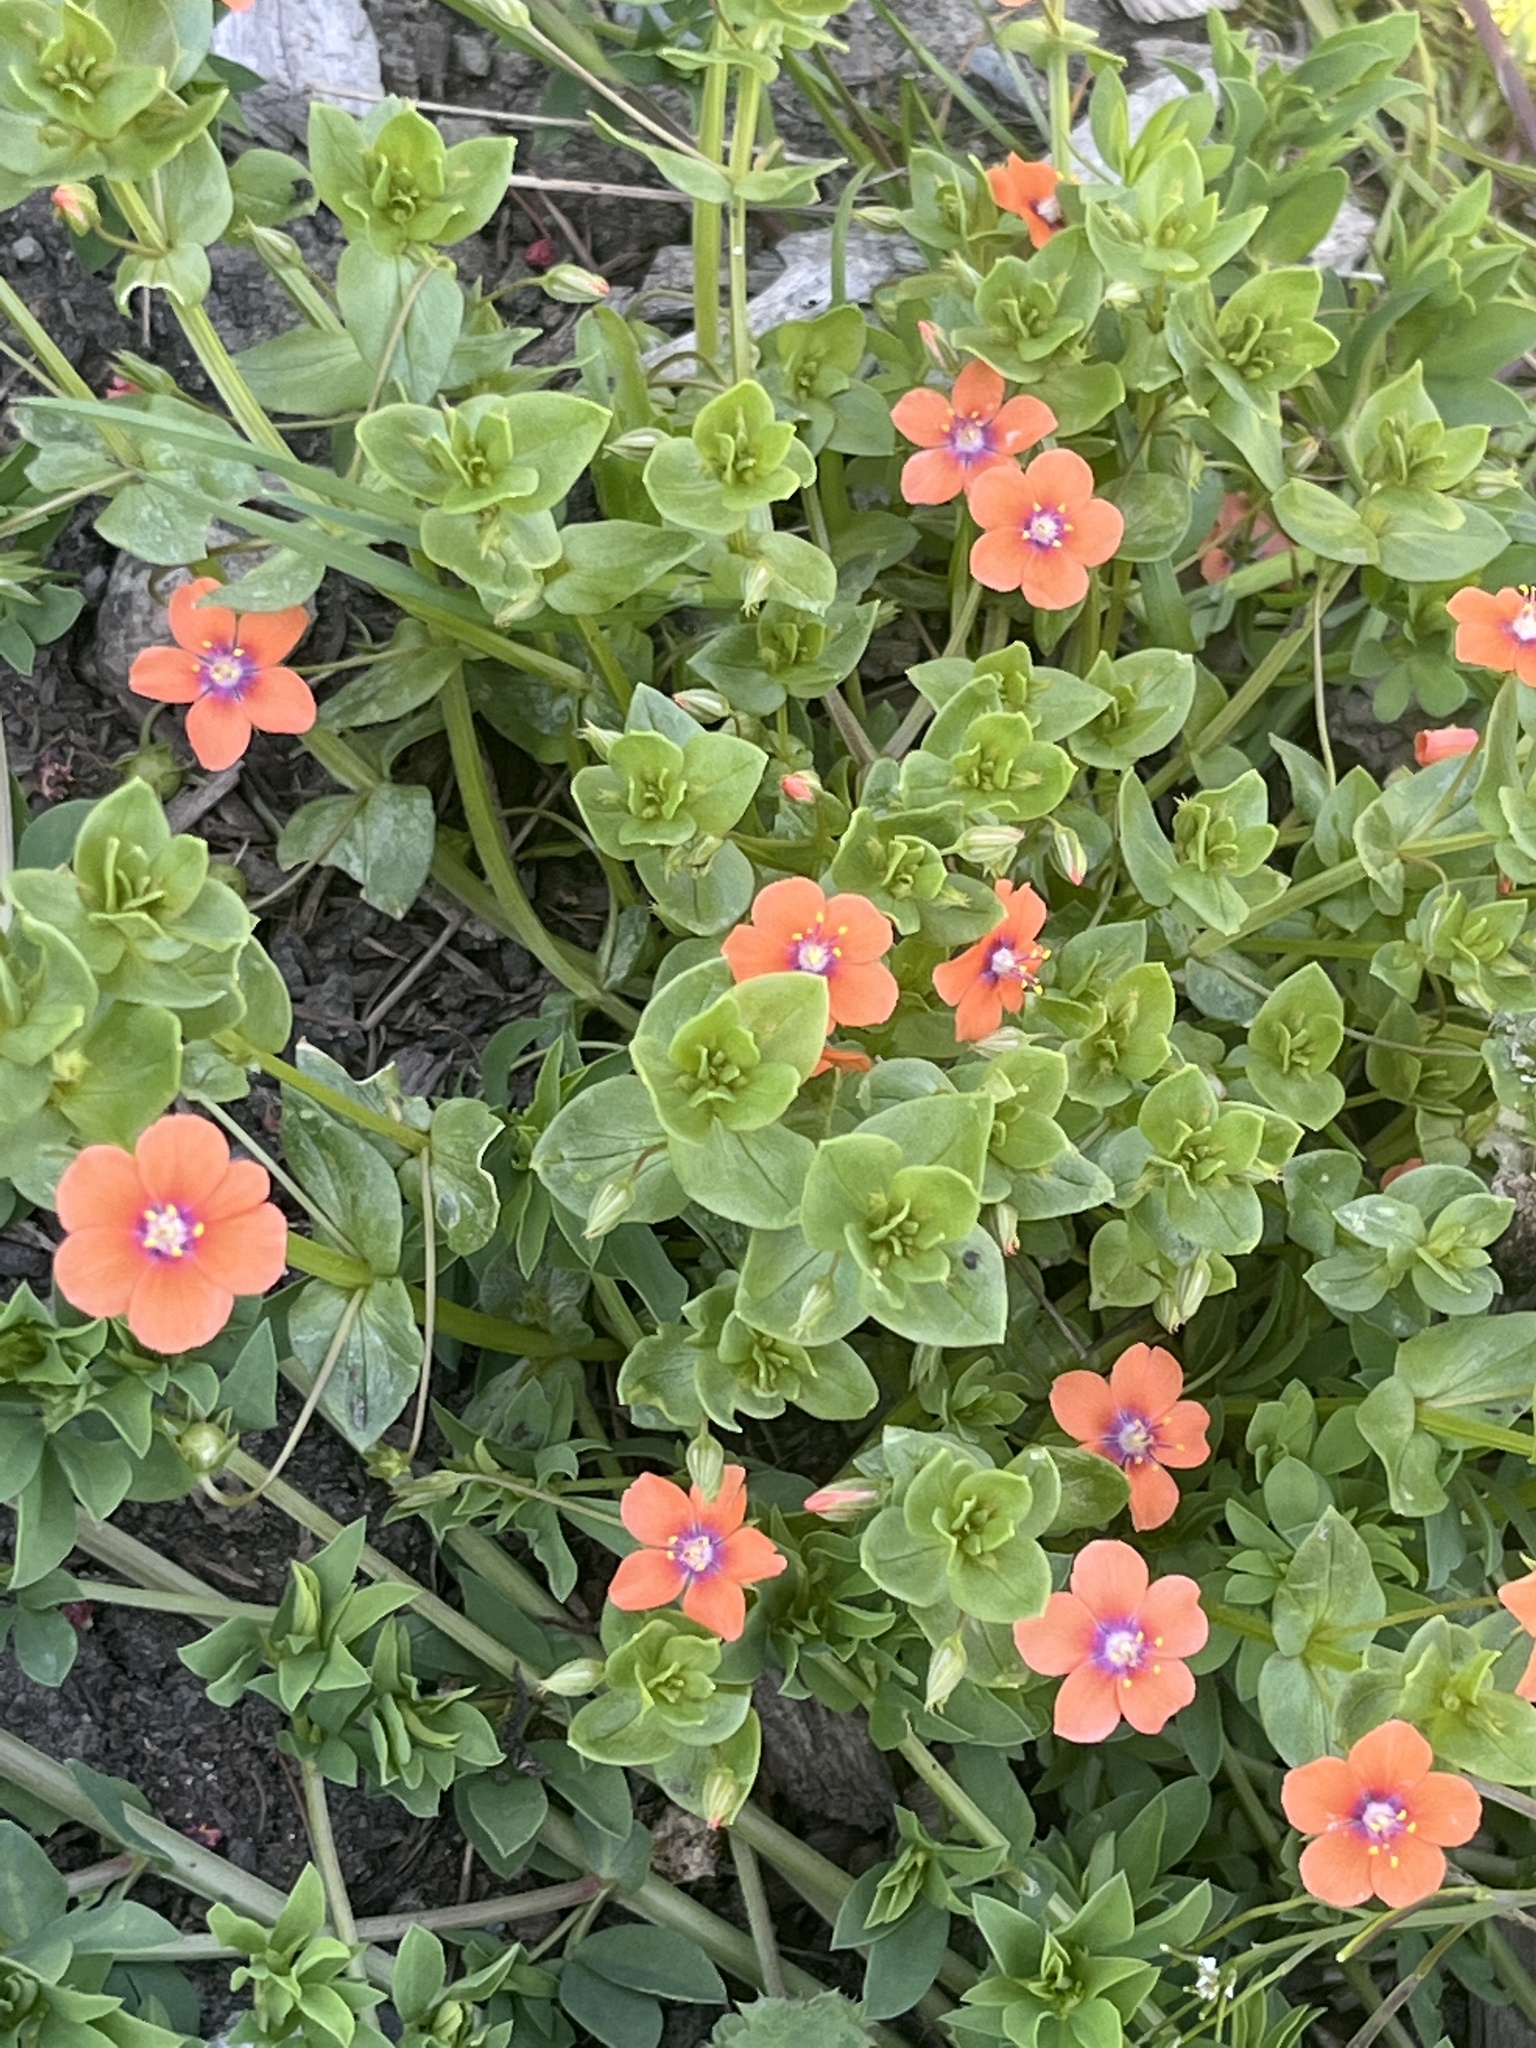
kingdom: Plantae
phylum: Tracheophyta
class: Magnoliopsida
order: Ericales
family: Primulaceae
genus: Lysimachia
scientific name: Lysimachia arvensis
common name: Scarlet pimpernel
